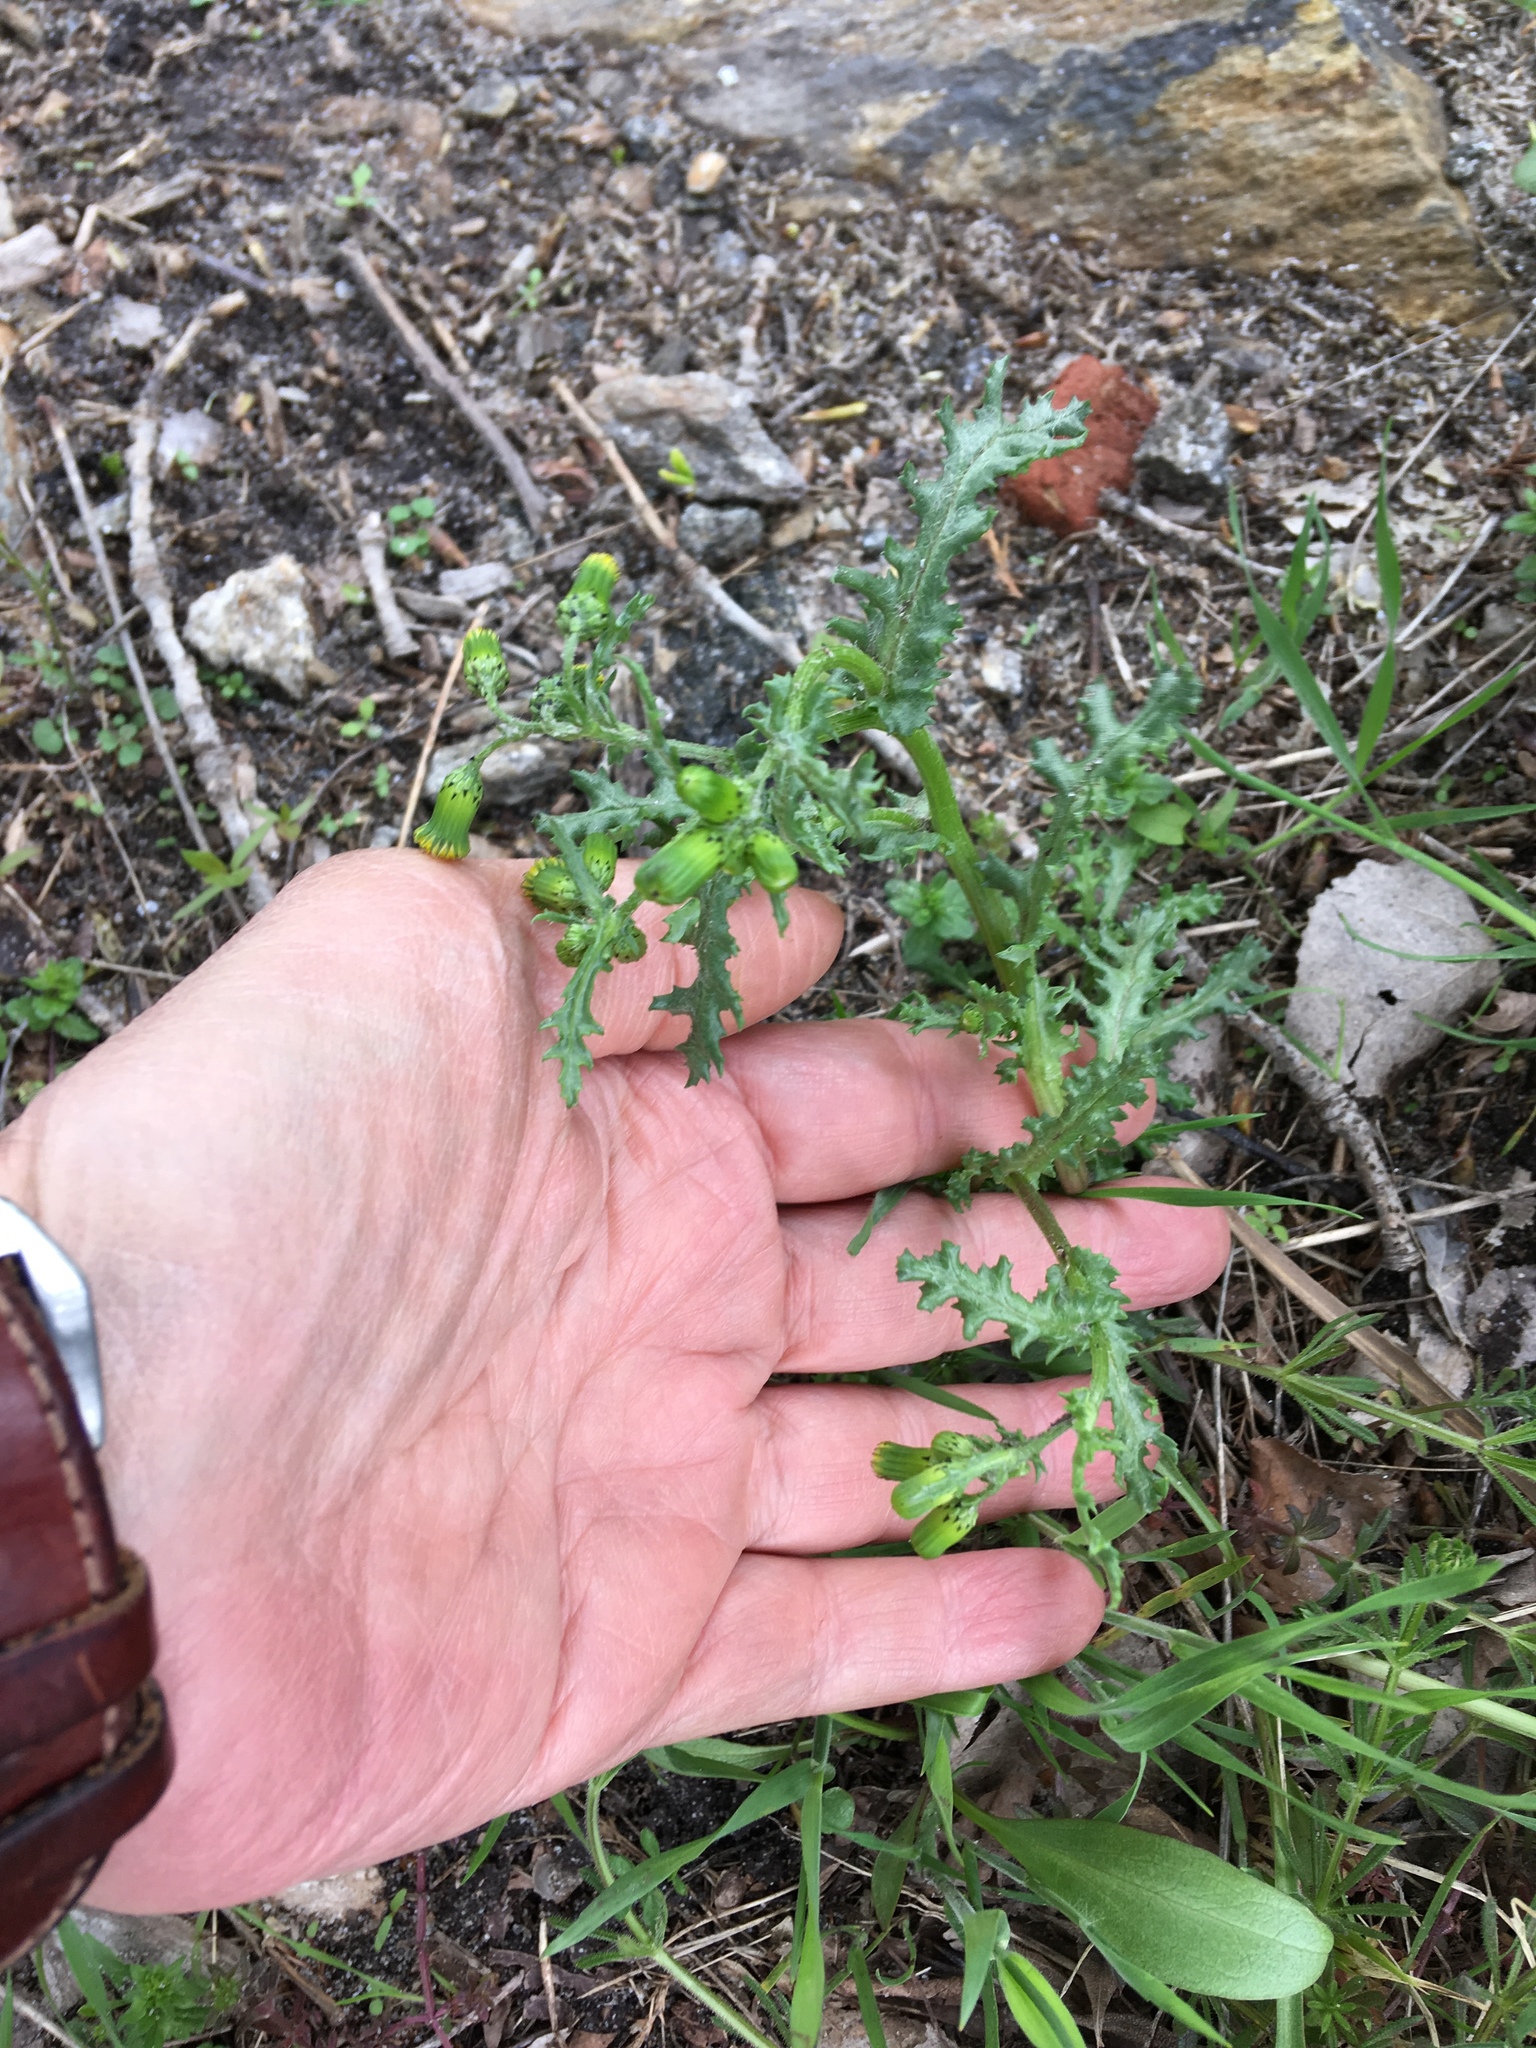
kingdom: Plantae
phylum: Tracheophyta
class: Magnoliopsida
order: Asterales
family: Asteraceae
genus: Senecio
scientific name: Senecio vulgaris
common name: Old-man-in-the-spring
